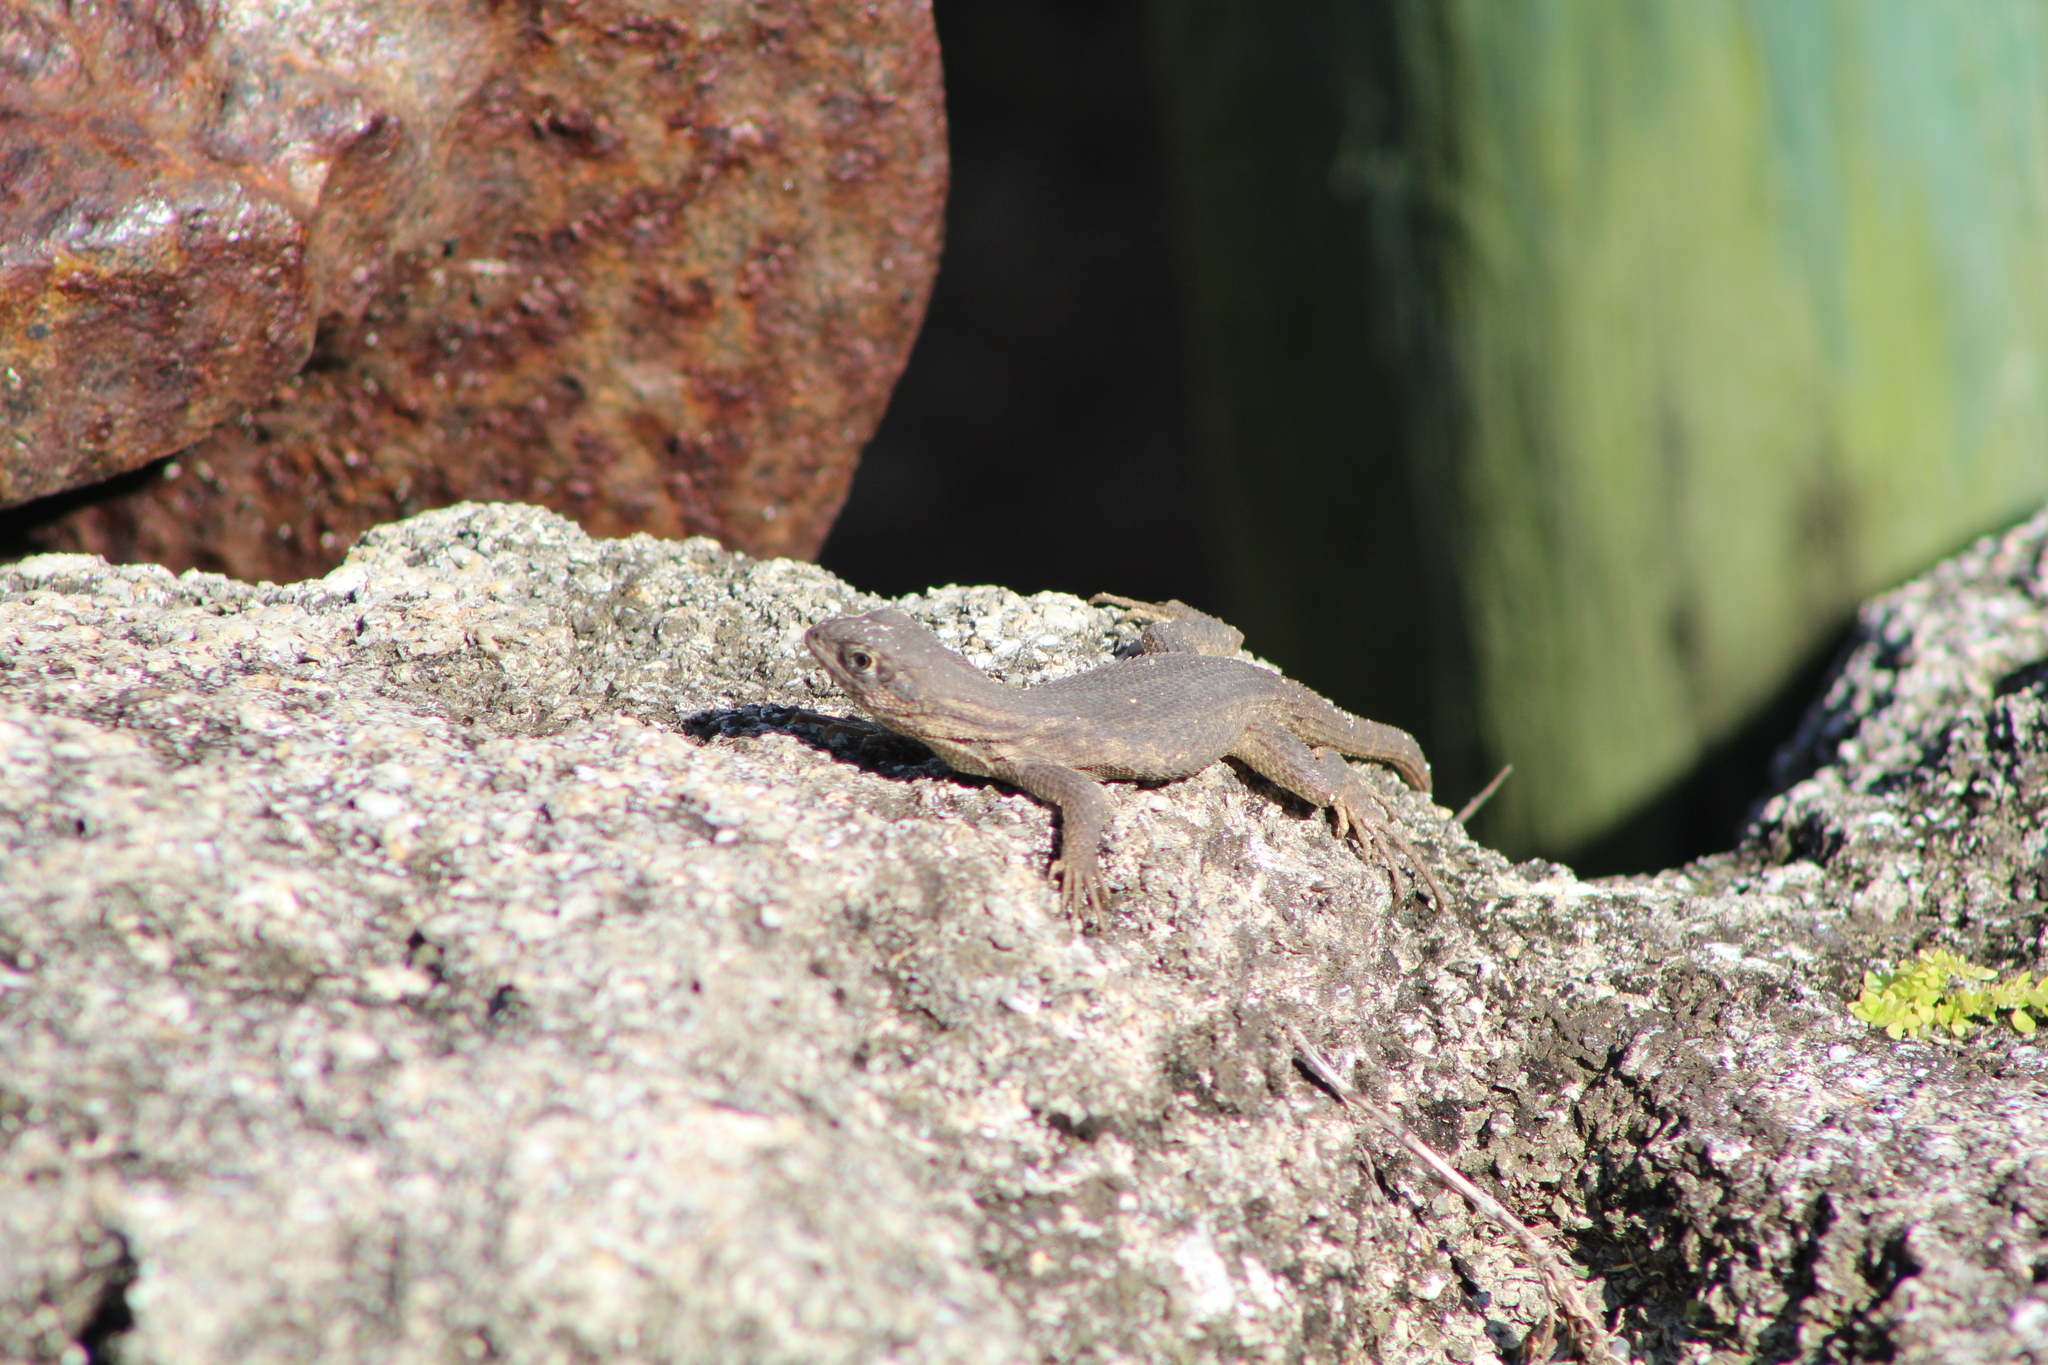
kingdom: Animalia
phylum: Chordata
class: Squamata
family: Leiocephalidae
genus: Leiocephalus
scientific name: Leiocephalus carinatus
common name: Northern curly-tailed lizard
